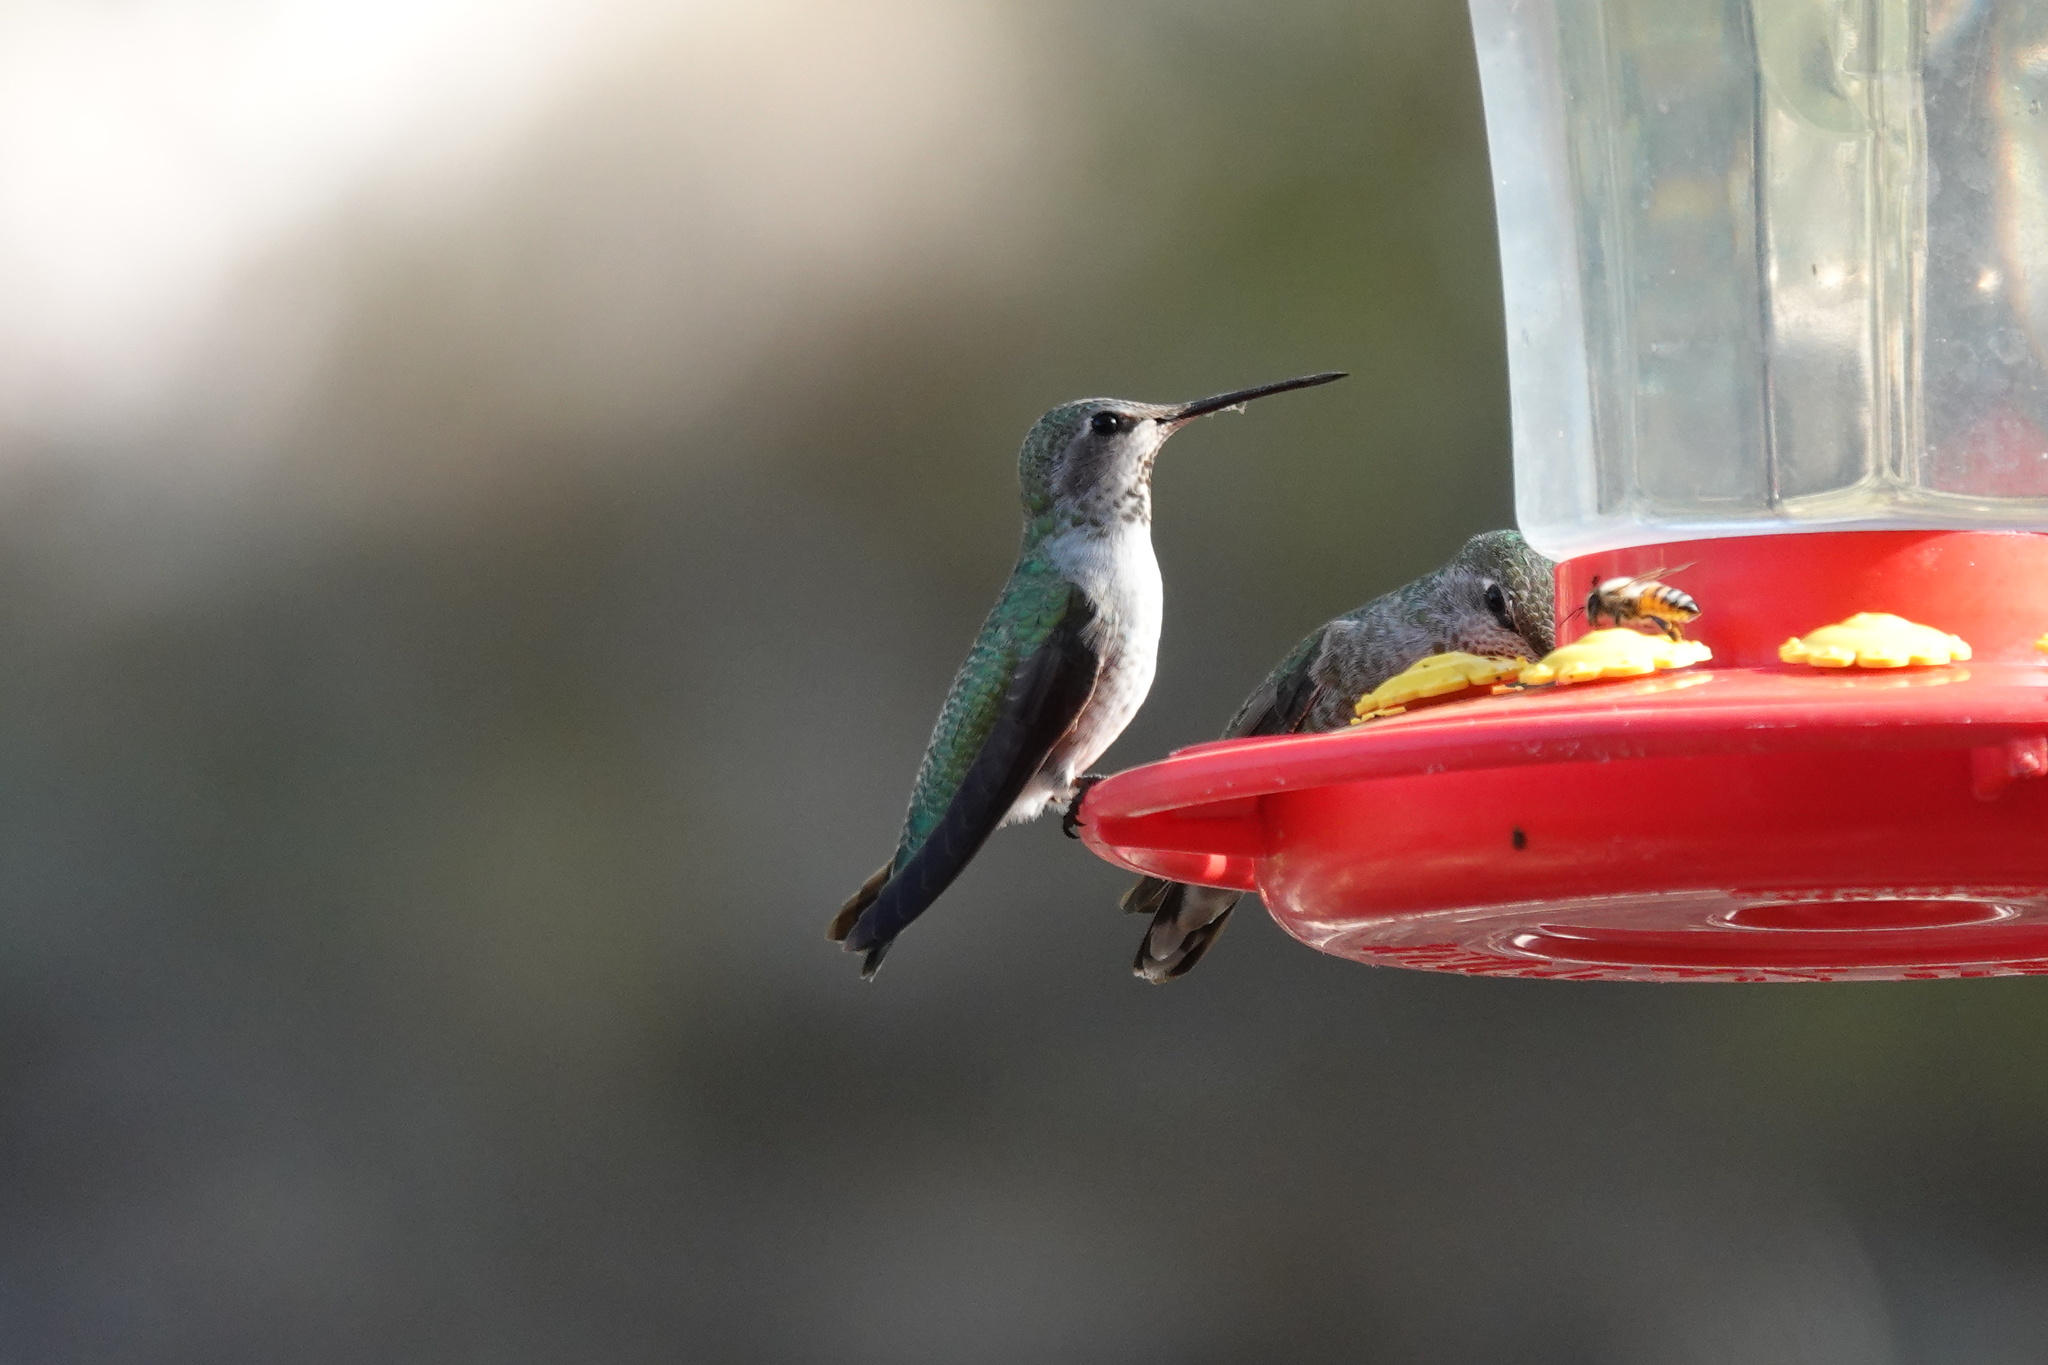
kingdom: Animalia
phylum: Chordata
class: Aves
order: Apodiformes
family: Trochilidae
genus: Archilochus
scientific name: Archilochus alexandri
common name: Black-chinned hummingbird
